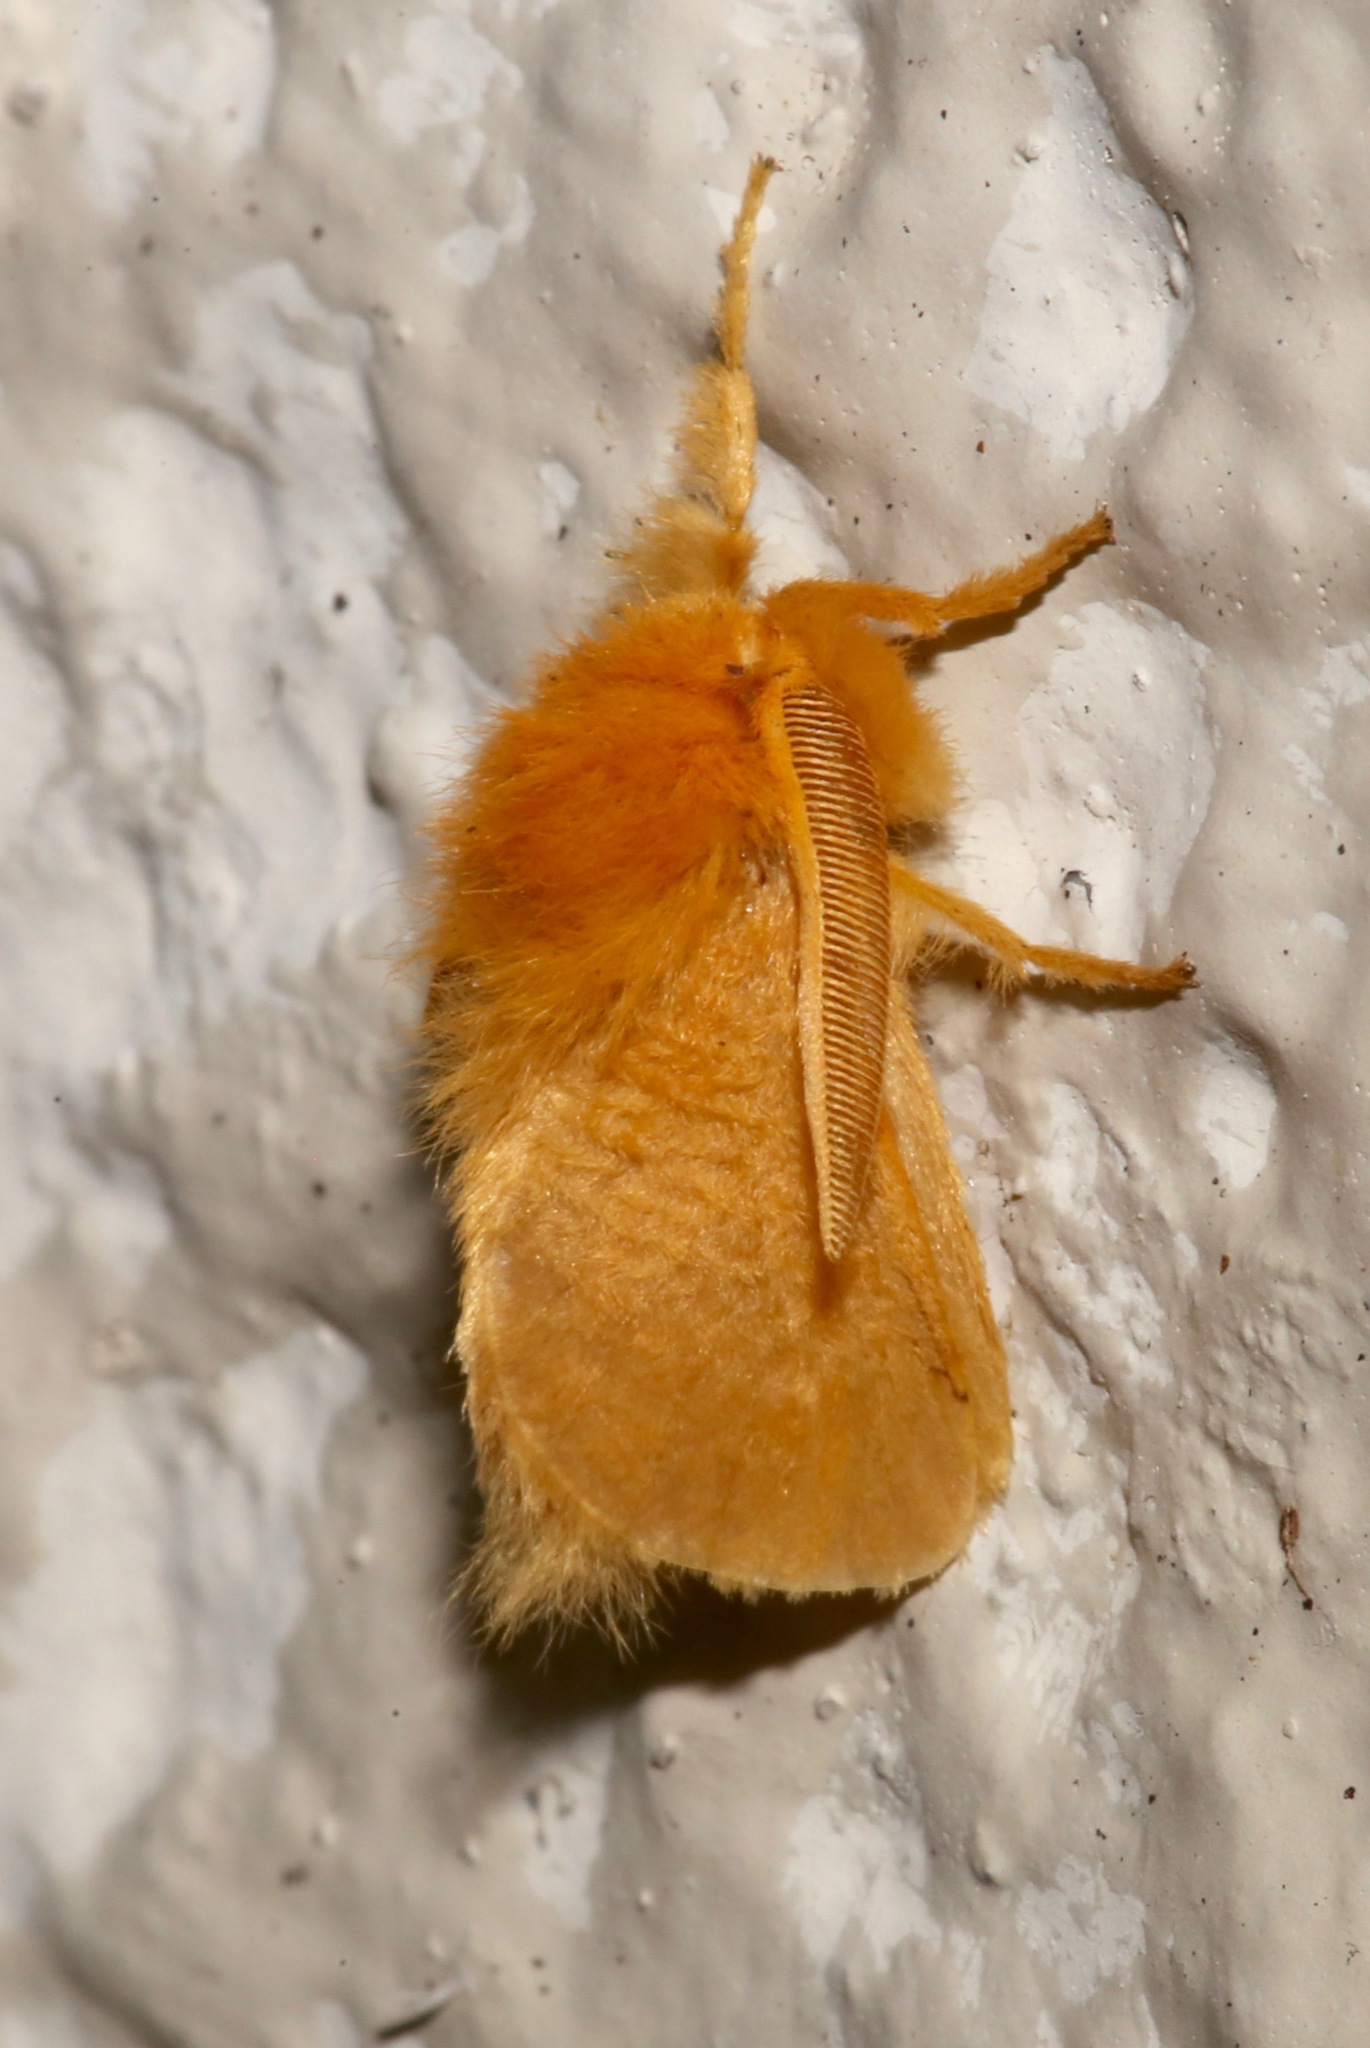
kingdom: Animalia
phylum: Arthropoda
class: Insecta
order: Lepidoptera
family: Megalopygidae
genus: Megalopyge
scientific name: Megalopyge pixidifera
